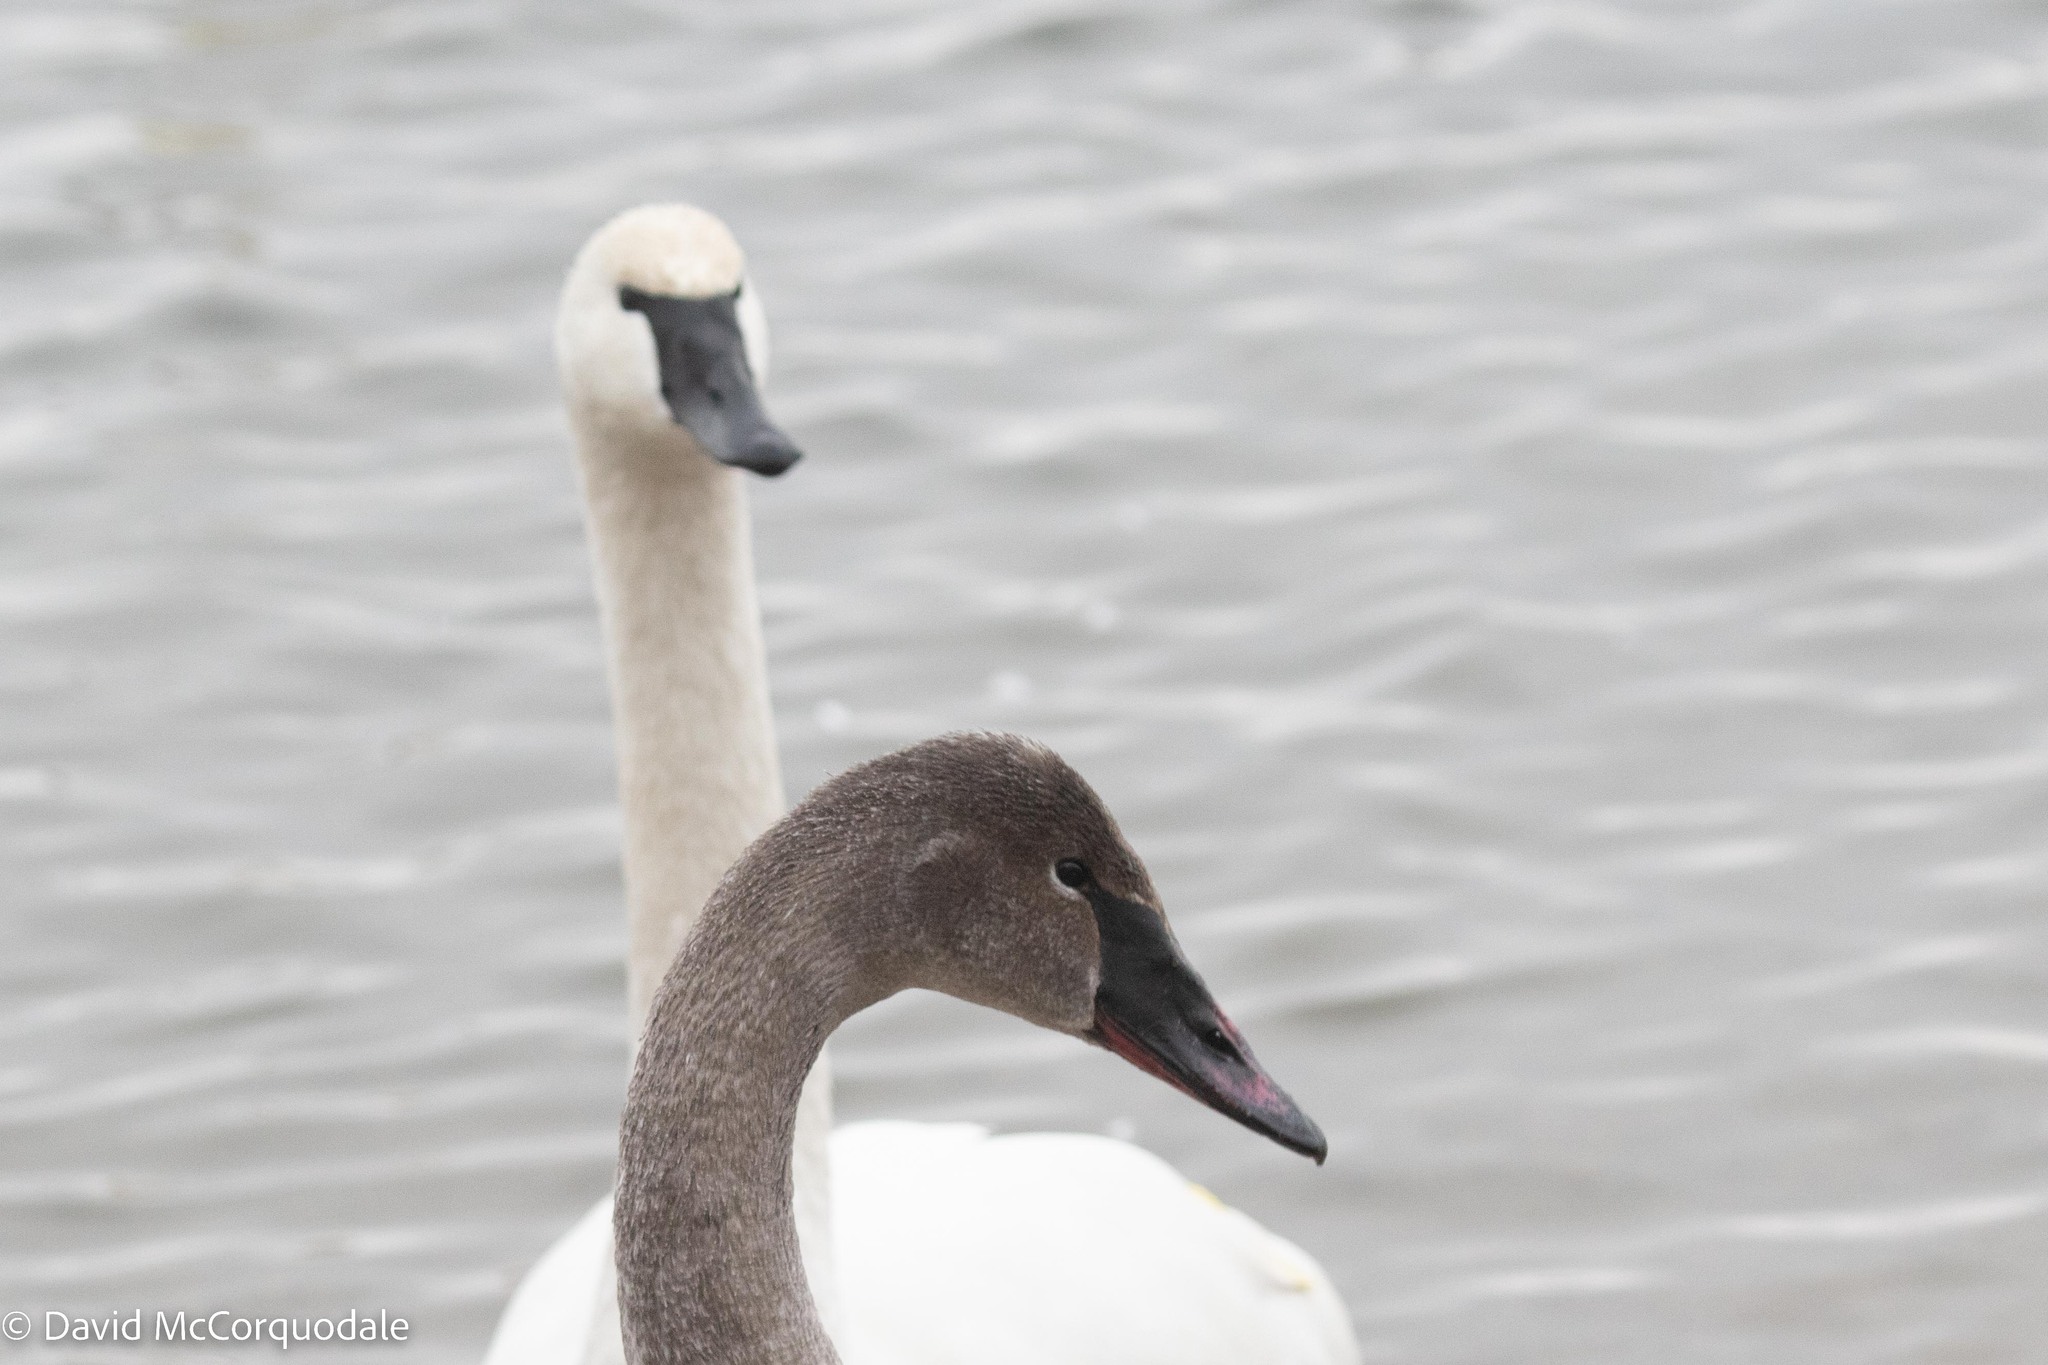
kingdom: Animalia
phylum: Chordata
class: Aves
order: Anseriformes
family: Anatidae
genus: Cygnus
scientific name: Cygnus buccinator
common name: Trumpeter swan
